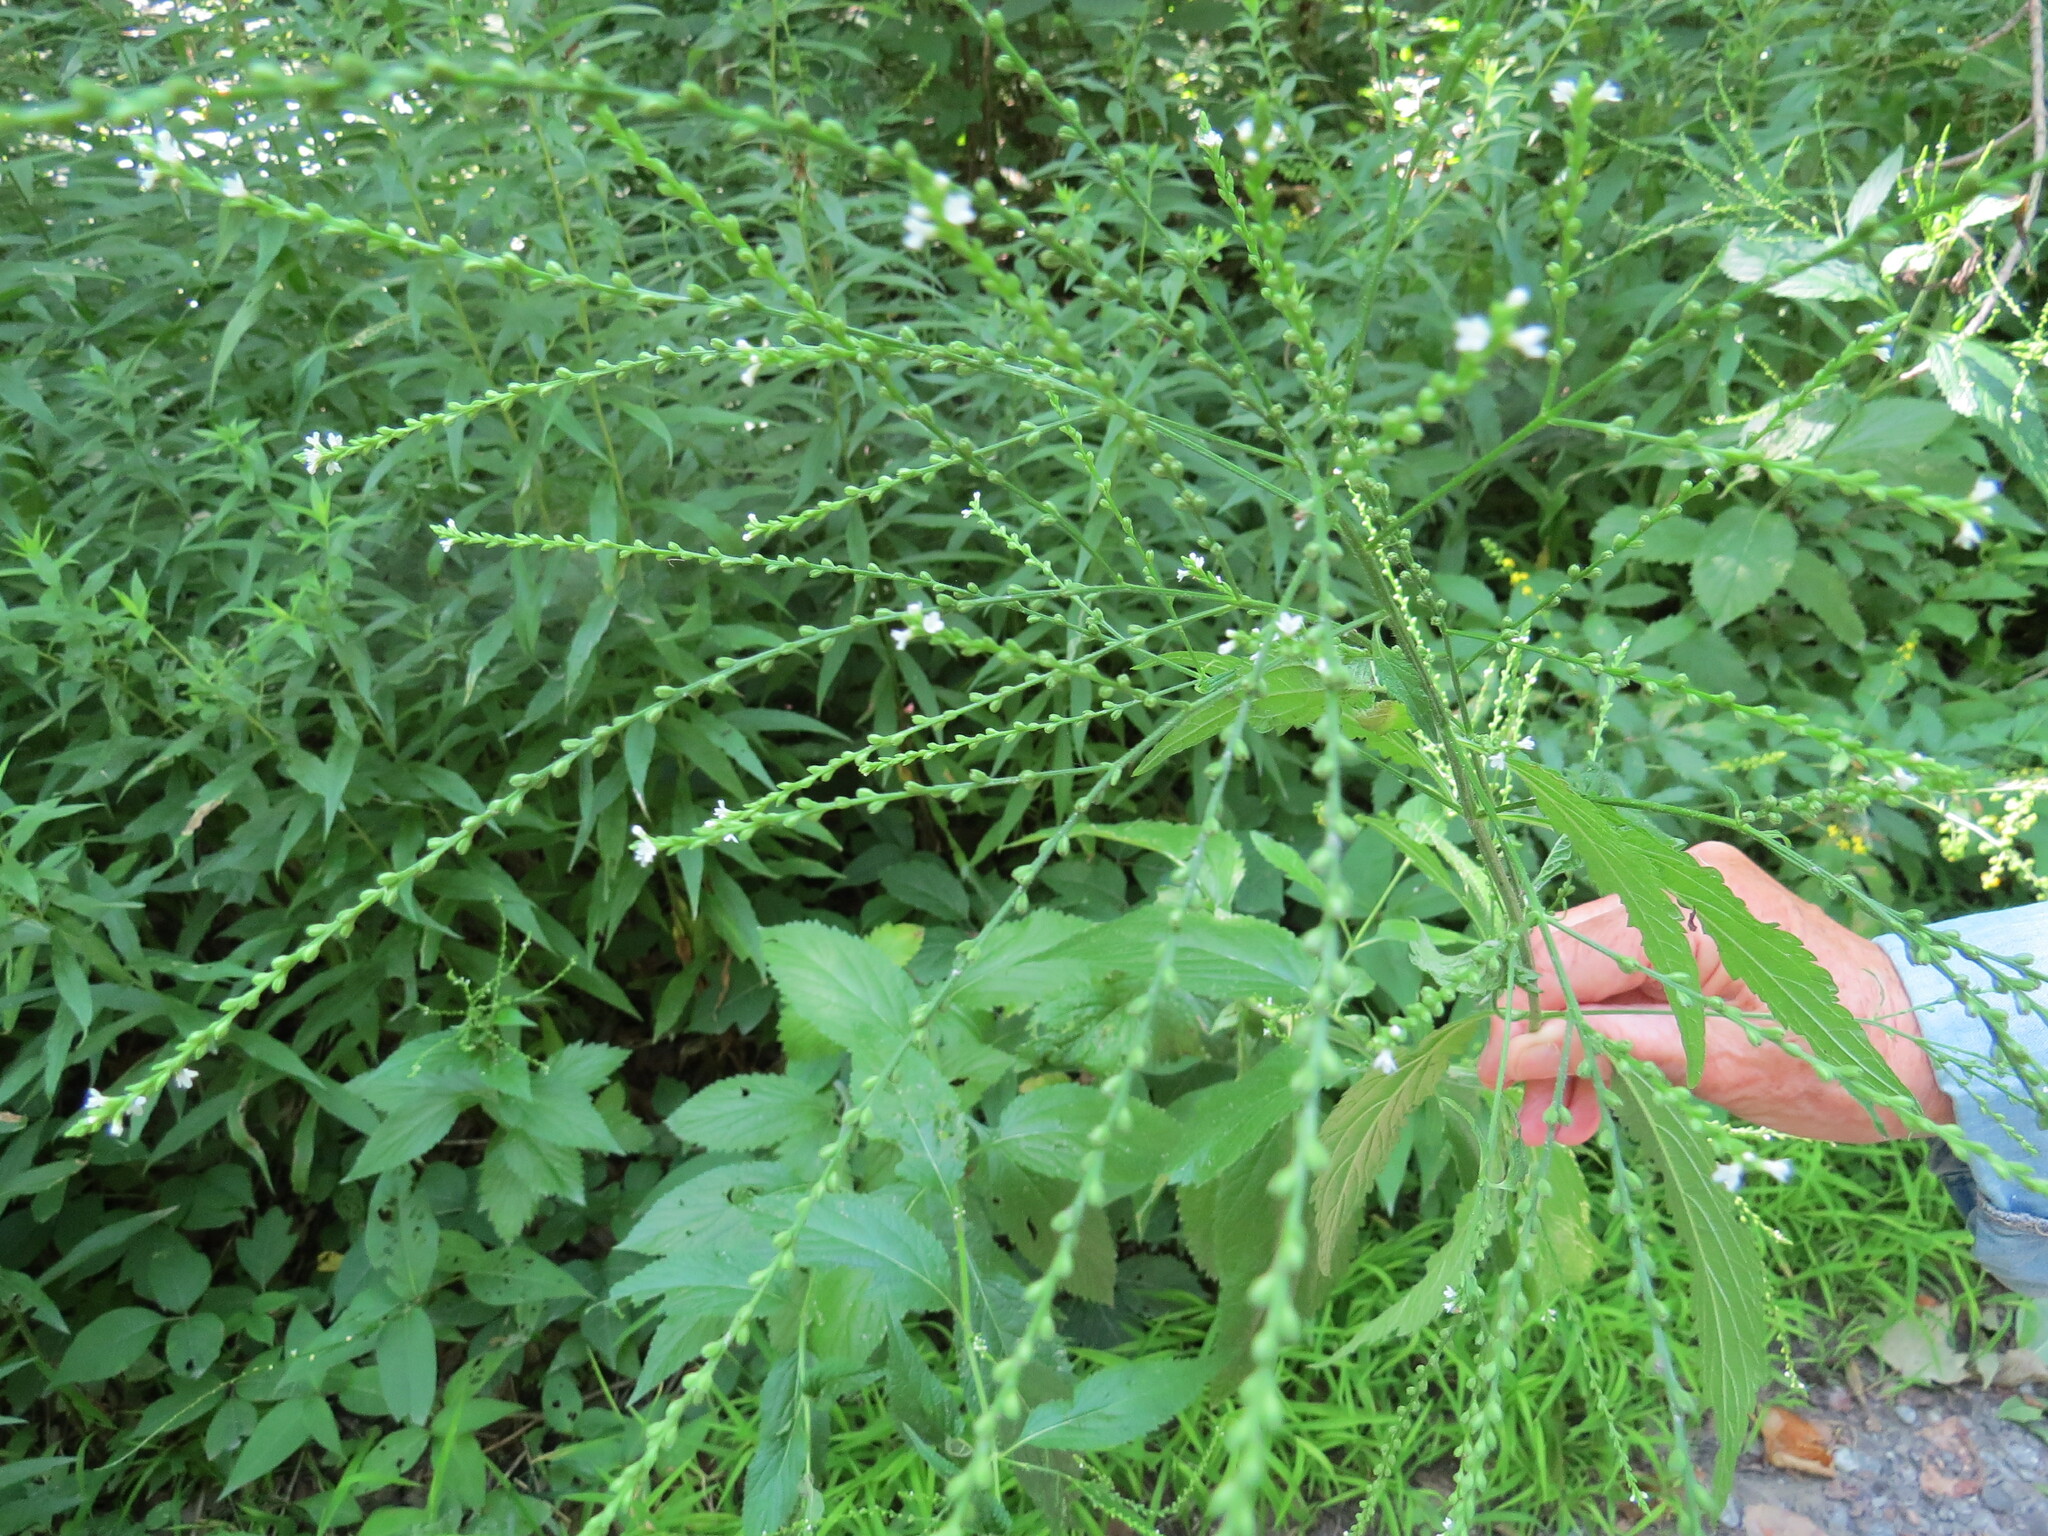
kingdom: Plantae
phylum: Tracheophyta
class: Magnoliopsida
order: Lamiales
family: Verbenaceae
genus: Verbena
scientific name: Verbena urticifolia
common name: Nettle-leaved vervain
